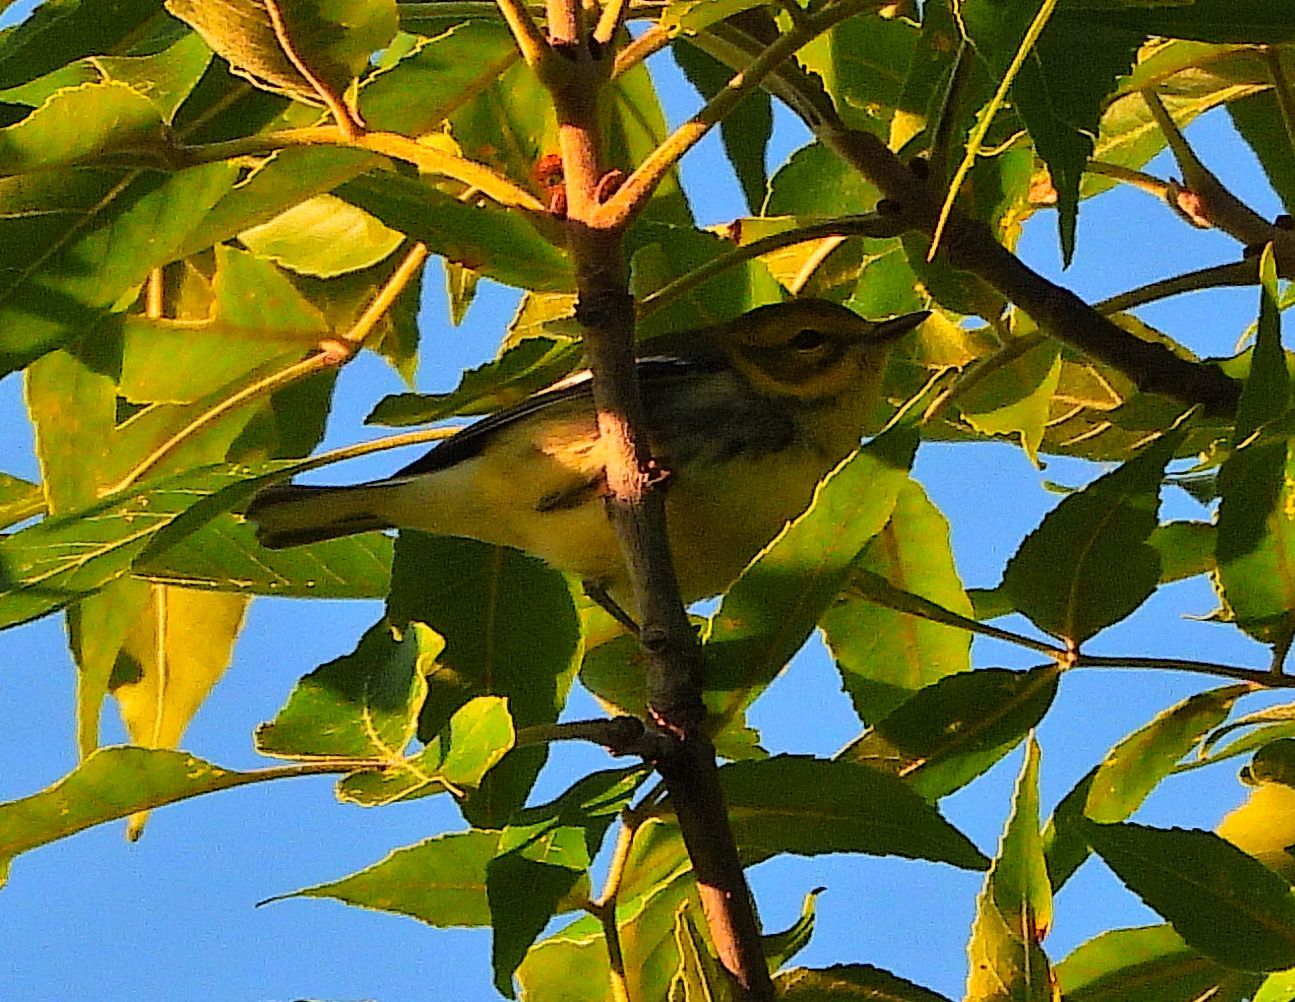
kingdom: Animalia
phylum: Chordata
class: Aves
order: Passeriformes
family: Parulidae
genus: Setophaga
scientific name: Setophaga virens
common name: Black-throated green warbler
